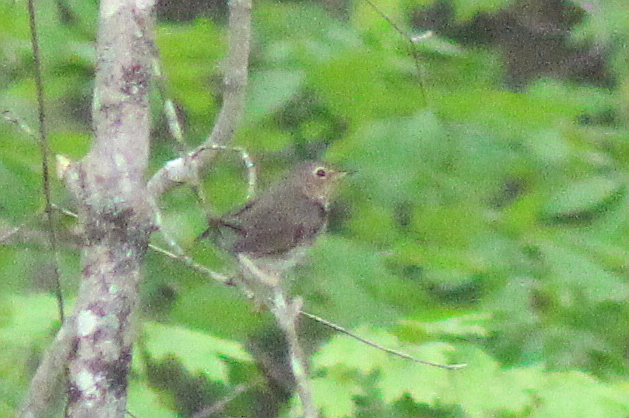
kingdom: Animalia
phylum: Chordata
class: Aves
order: Passeriformes
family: Turdidae
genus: Catharus
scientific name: Catharus ustulatus
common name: Swainson's thrush
